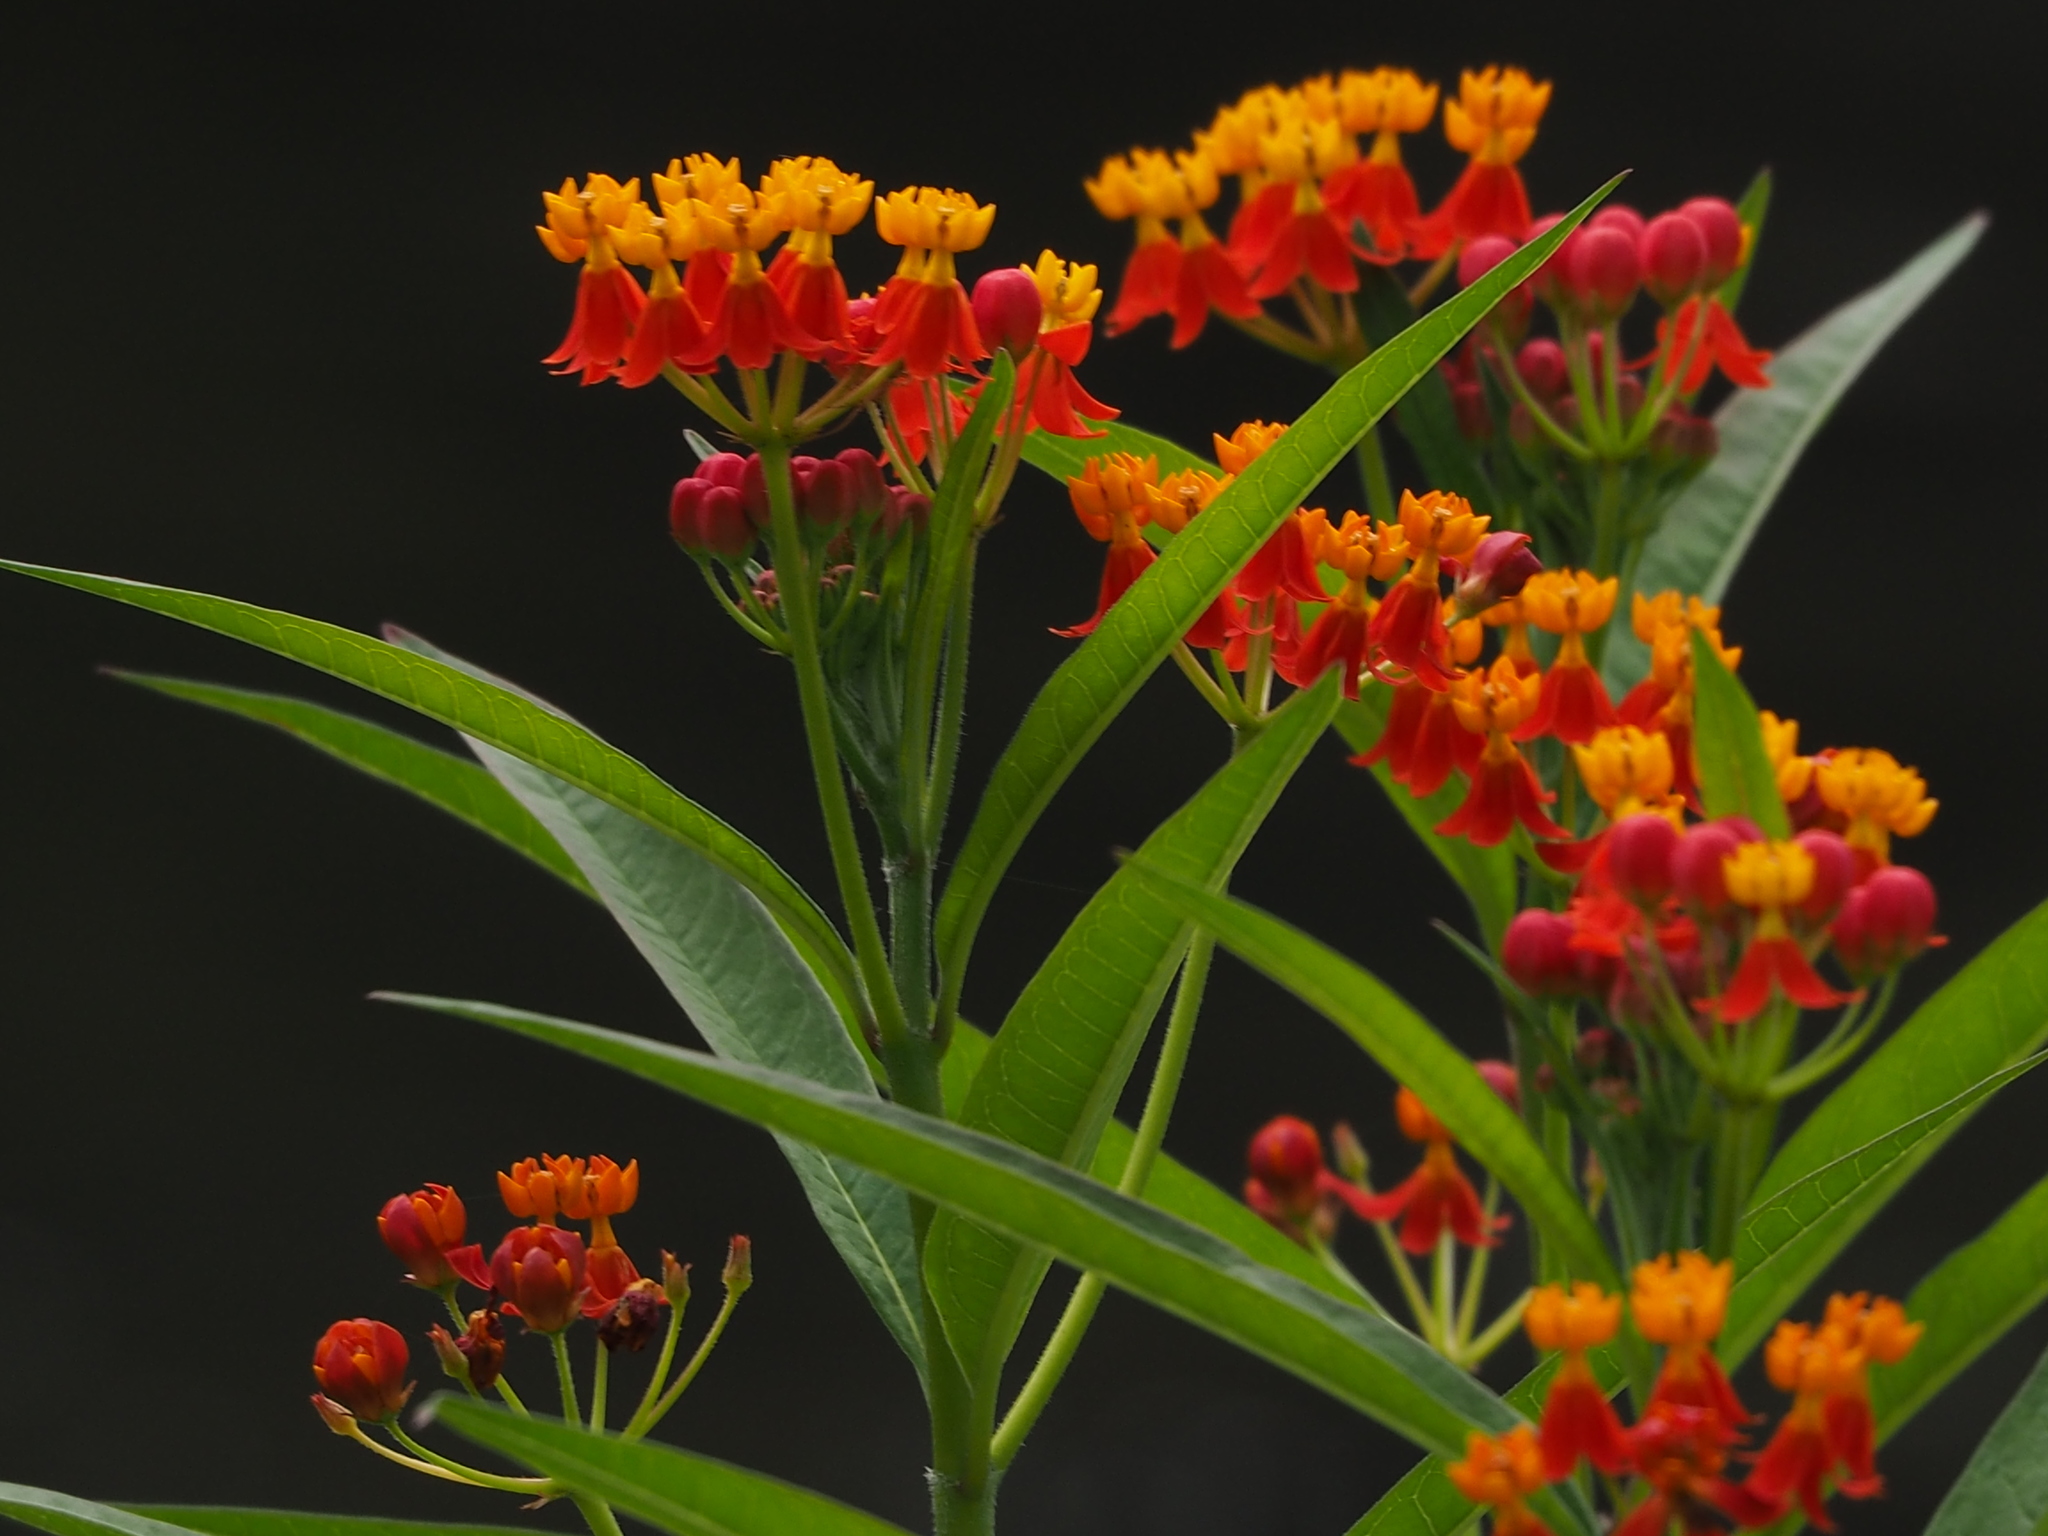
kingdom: Plantae
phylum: Tracheophyta
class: Magnoliopsida
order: Gentianales
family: Apocynaceae
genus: Asclepias
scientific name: Asclepias curassavica
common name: Bloodflower
